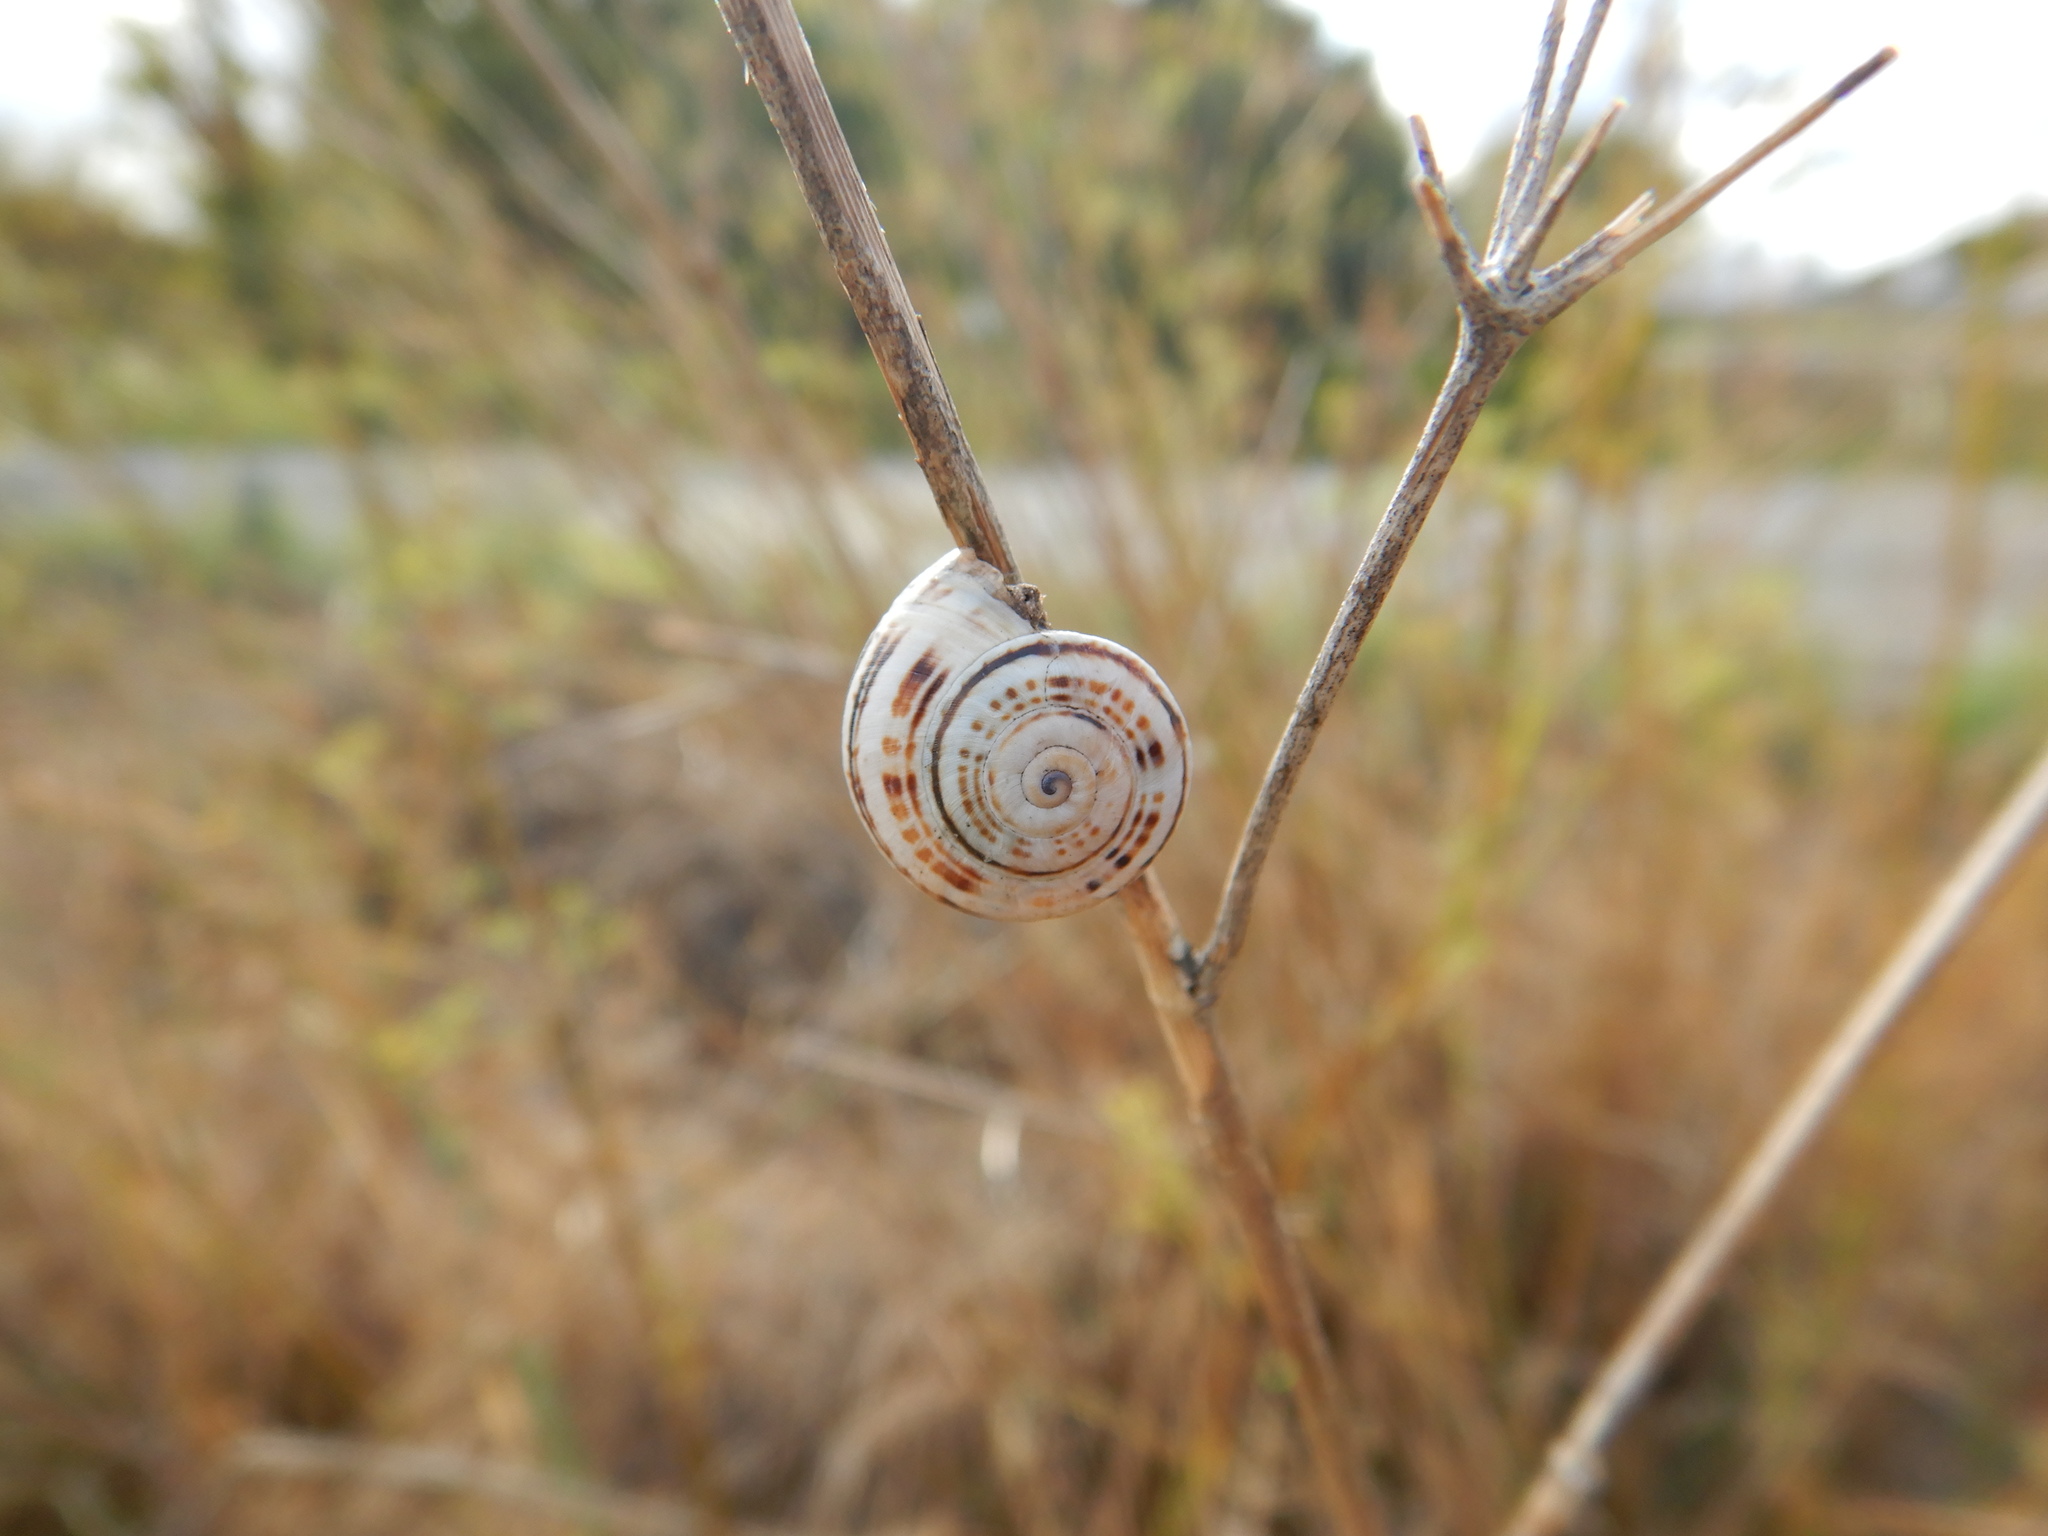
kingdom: Animalia
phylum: Mollusca
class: Gastropoda
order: Stylommatophora
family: Helicidae
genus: Theba
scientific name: Theba pisana
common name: White snail
